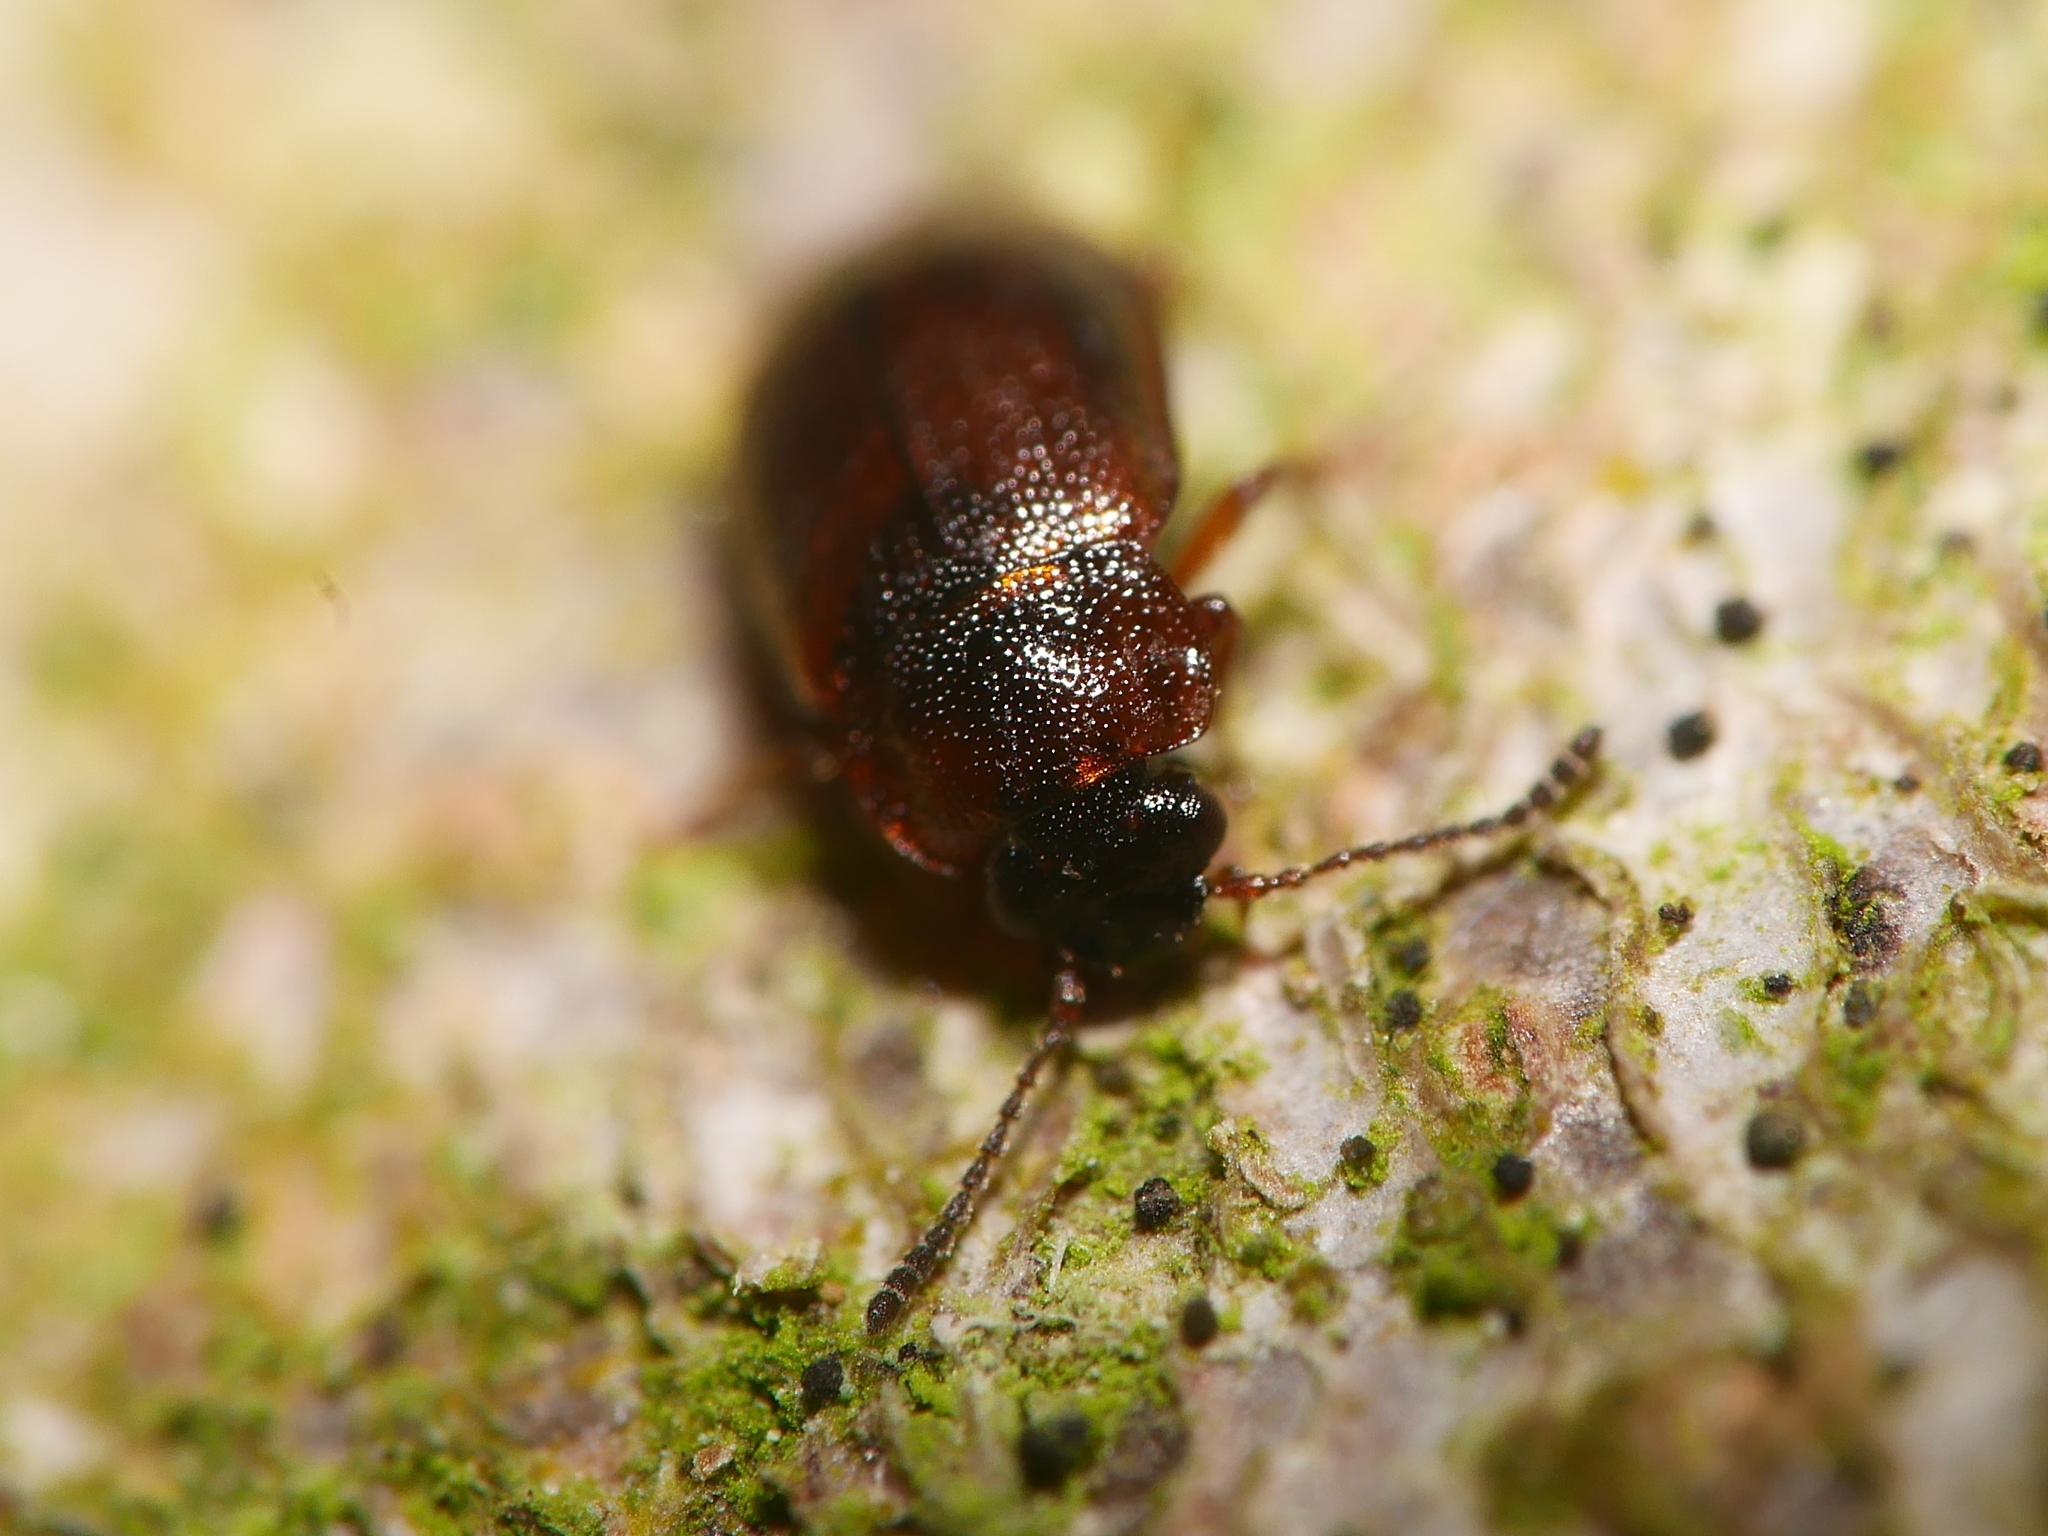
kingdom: Animalia
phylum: Arthropoda
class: Insecta
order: Coleoptera
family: Staphylinidae
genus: Anthobium
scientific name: Anthobium atrocephalum
